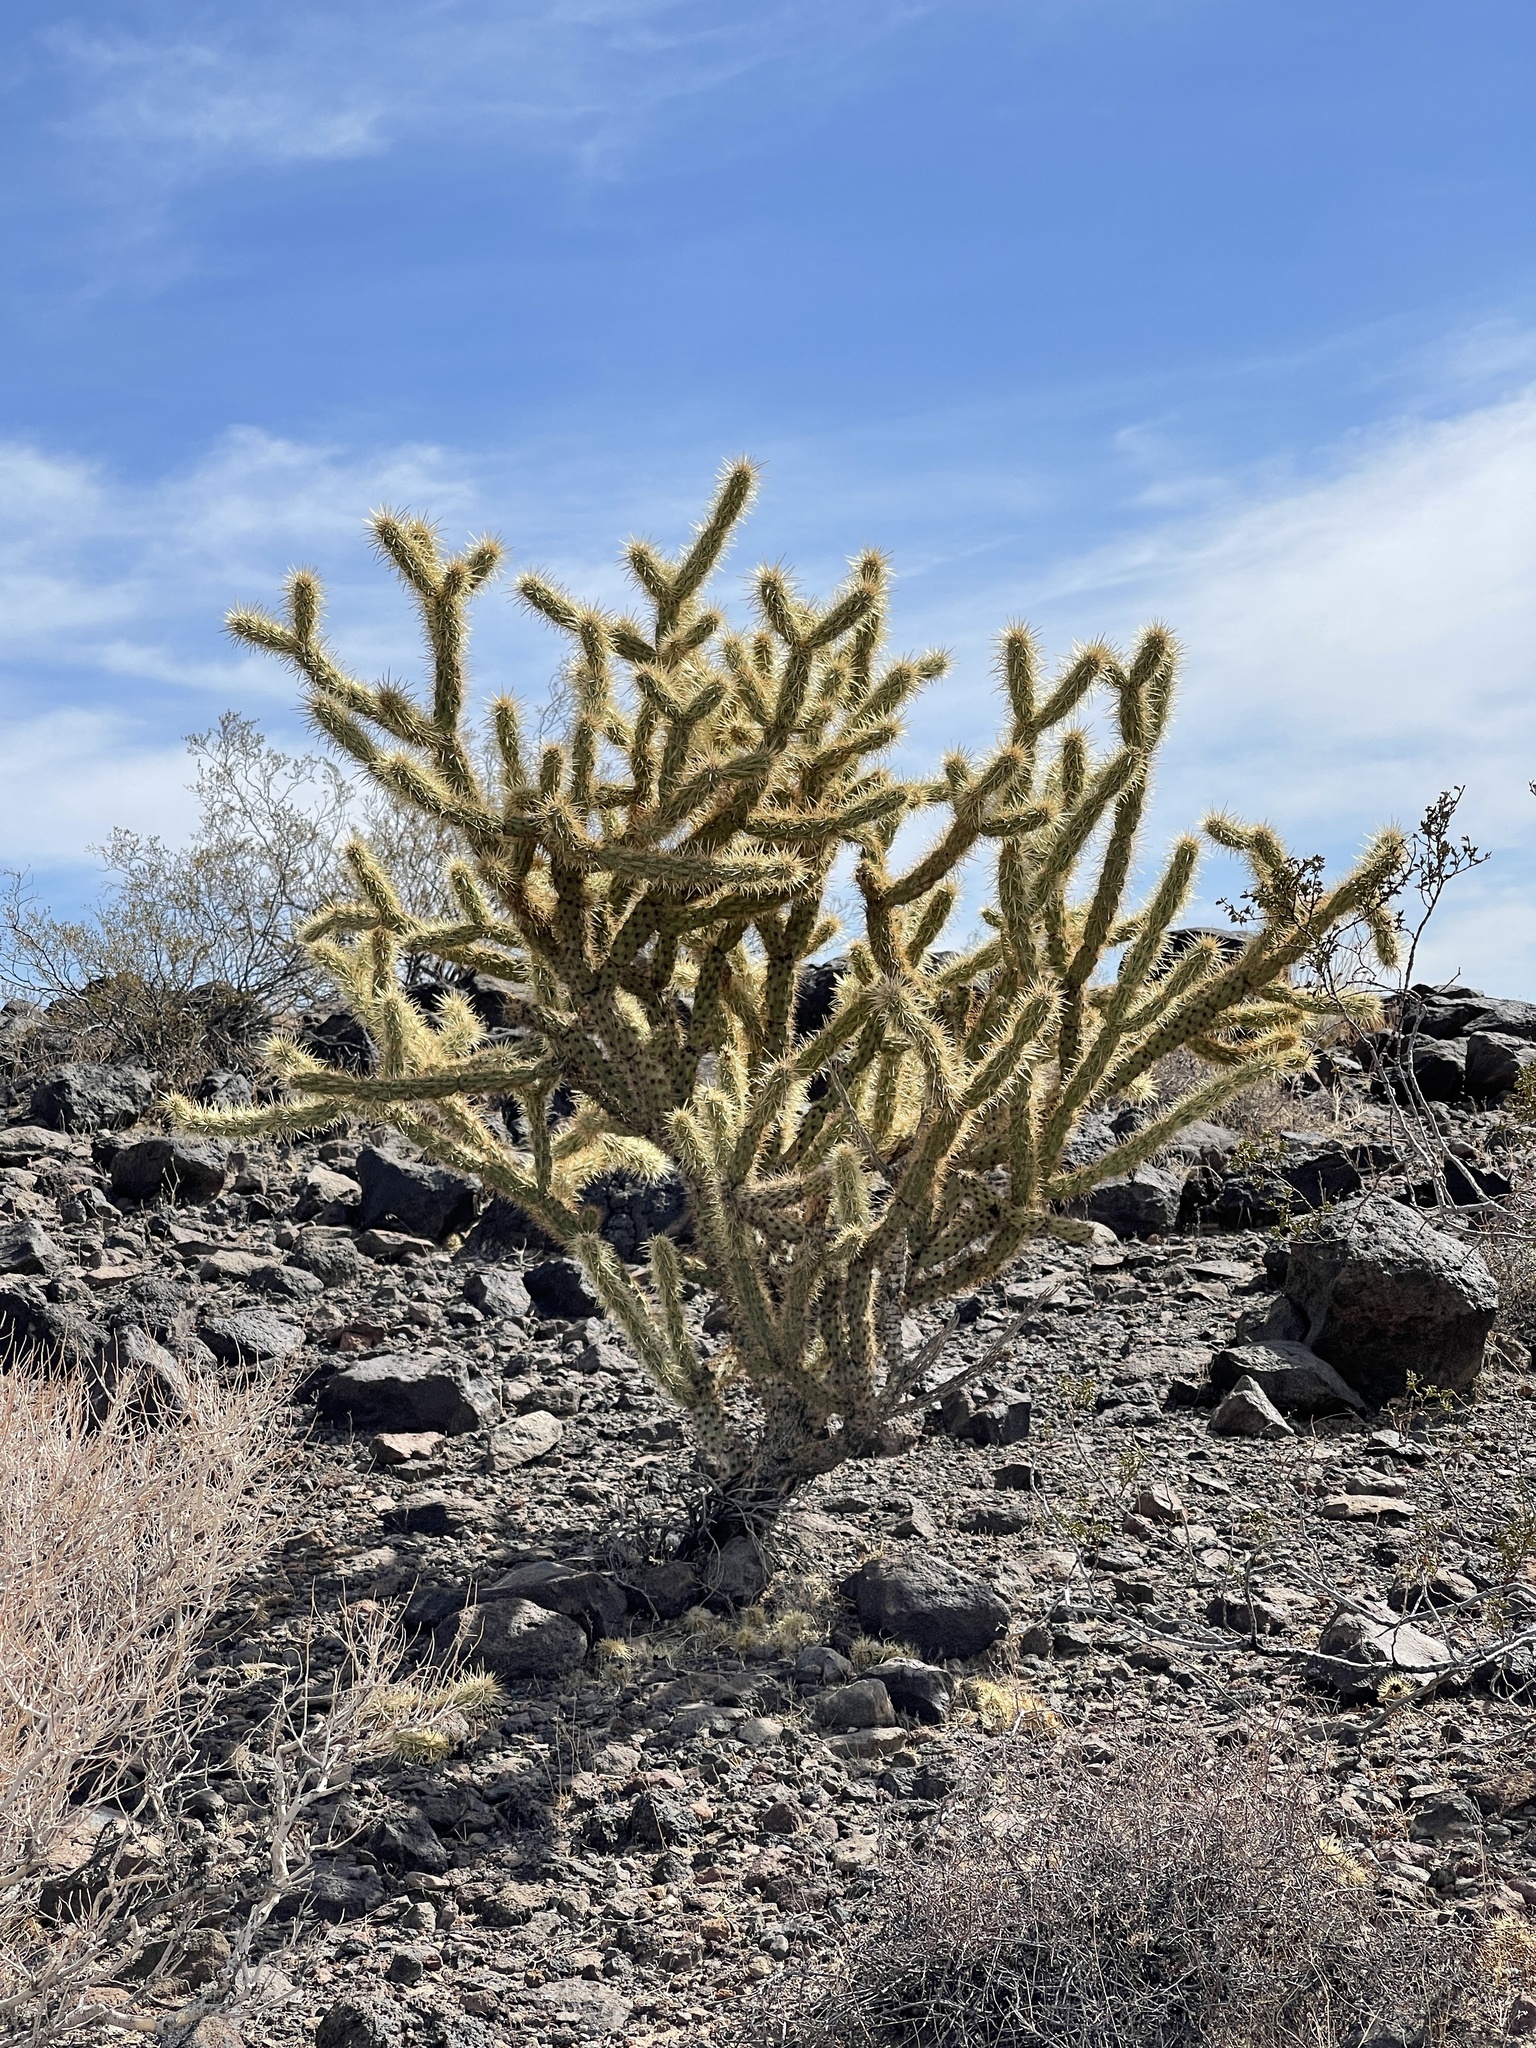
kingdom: Plantae
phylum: Tracheophyta
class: Magnoliopsida
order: Caryophyllales
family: Cactaceae
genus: Cylindropuntia
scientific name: Cylindropuntia acanthocarpa
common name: Buckhorn cholla
